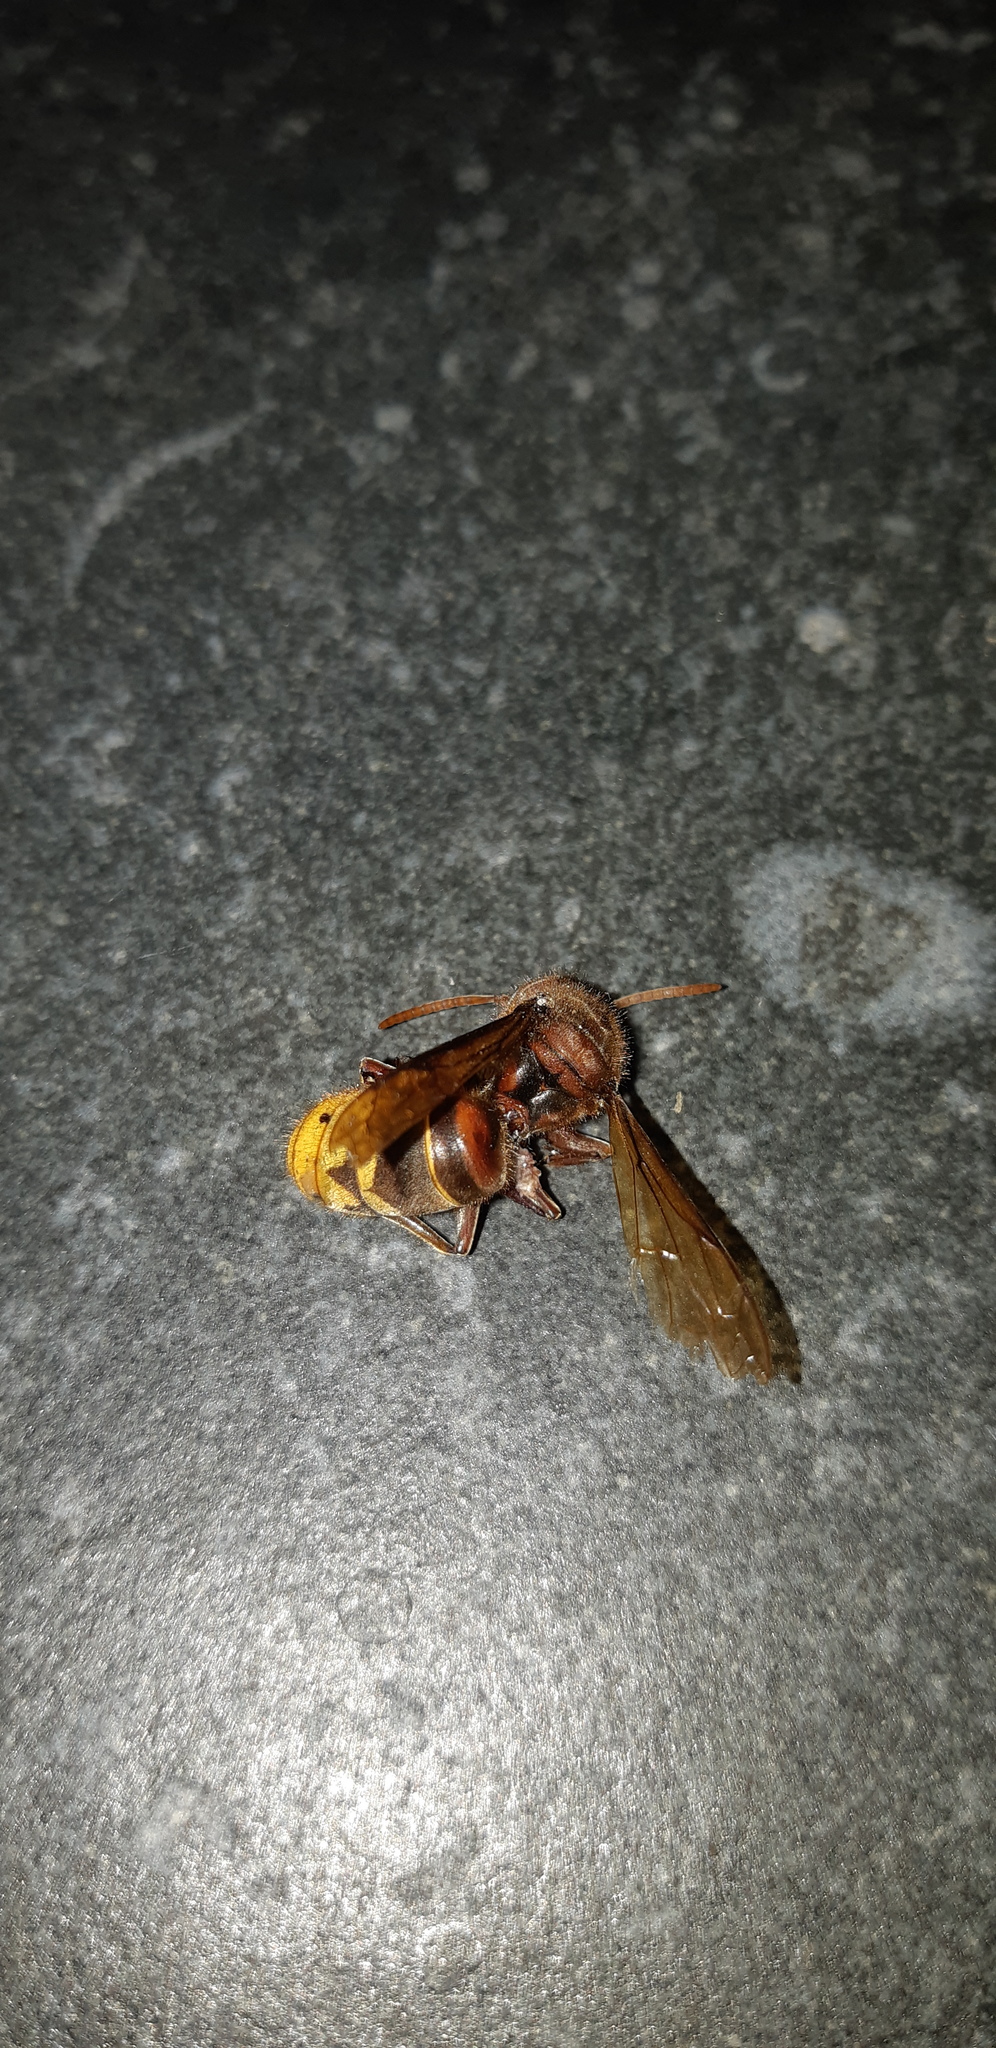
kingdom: Animalia
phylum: Arthropoda
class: Insecta
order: Hymenoptera
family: Vespidae
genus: Vespa
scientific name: Vespa crabro
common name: Hornet
